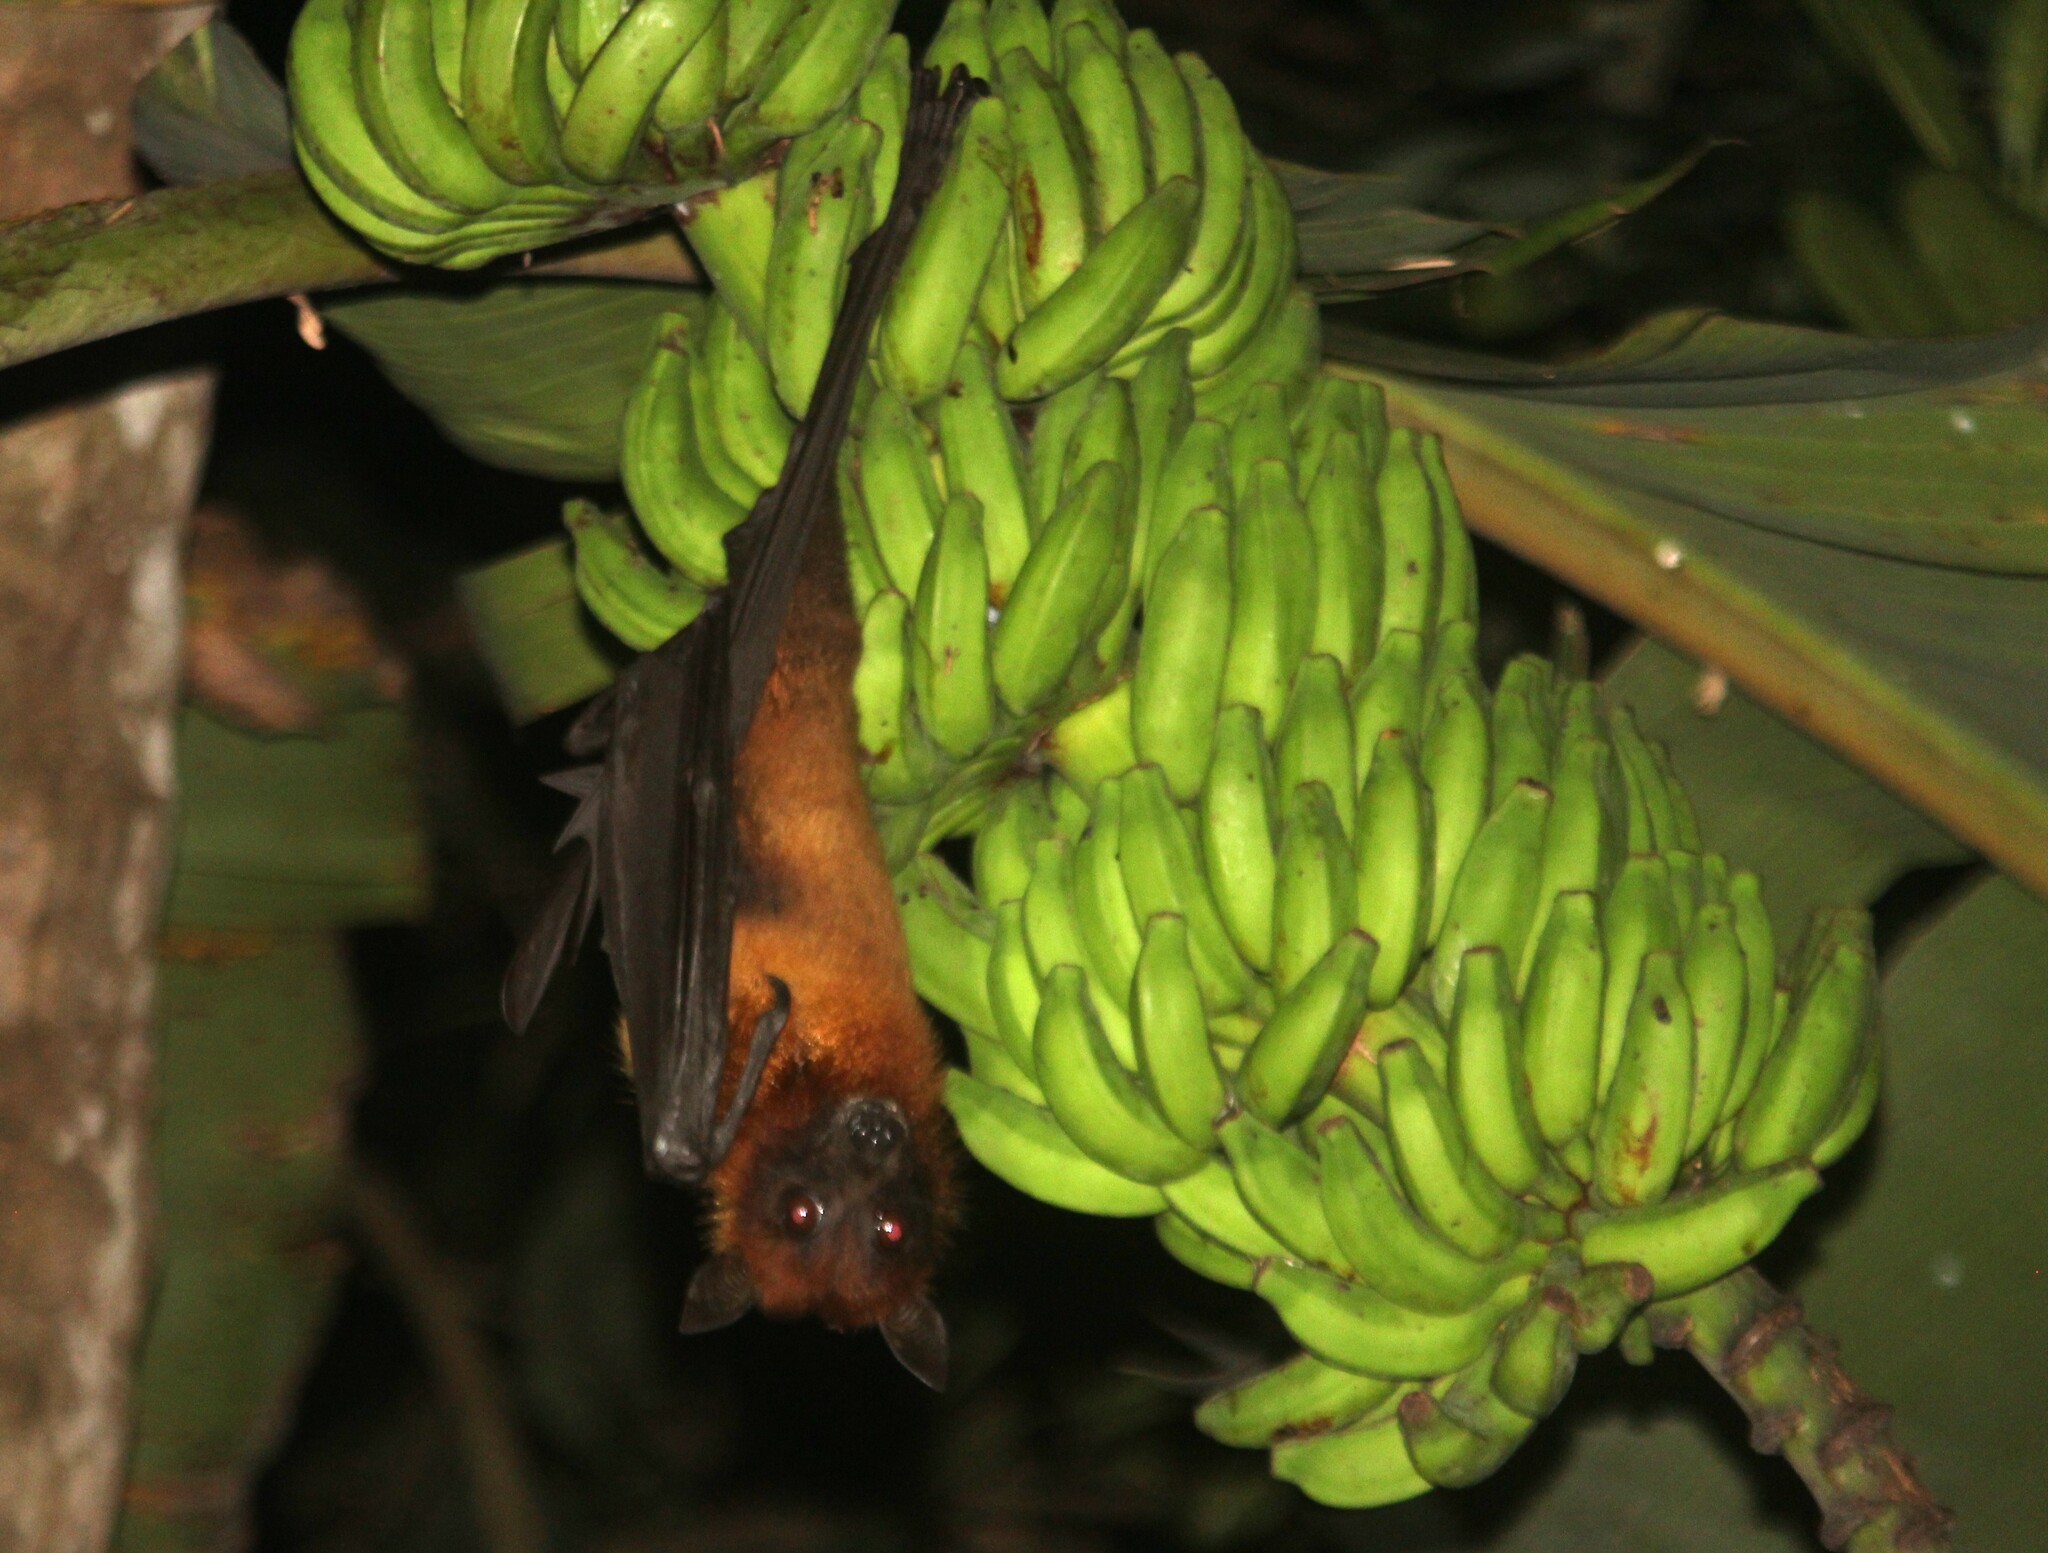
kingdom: Animalia
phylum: Chordata
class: Mammalia
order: Chiroptera
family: Pteropodidae
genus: Pteropus
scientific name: Pteropus vampyrus
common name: Large flying fox
